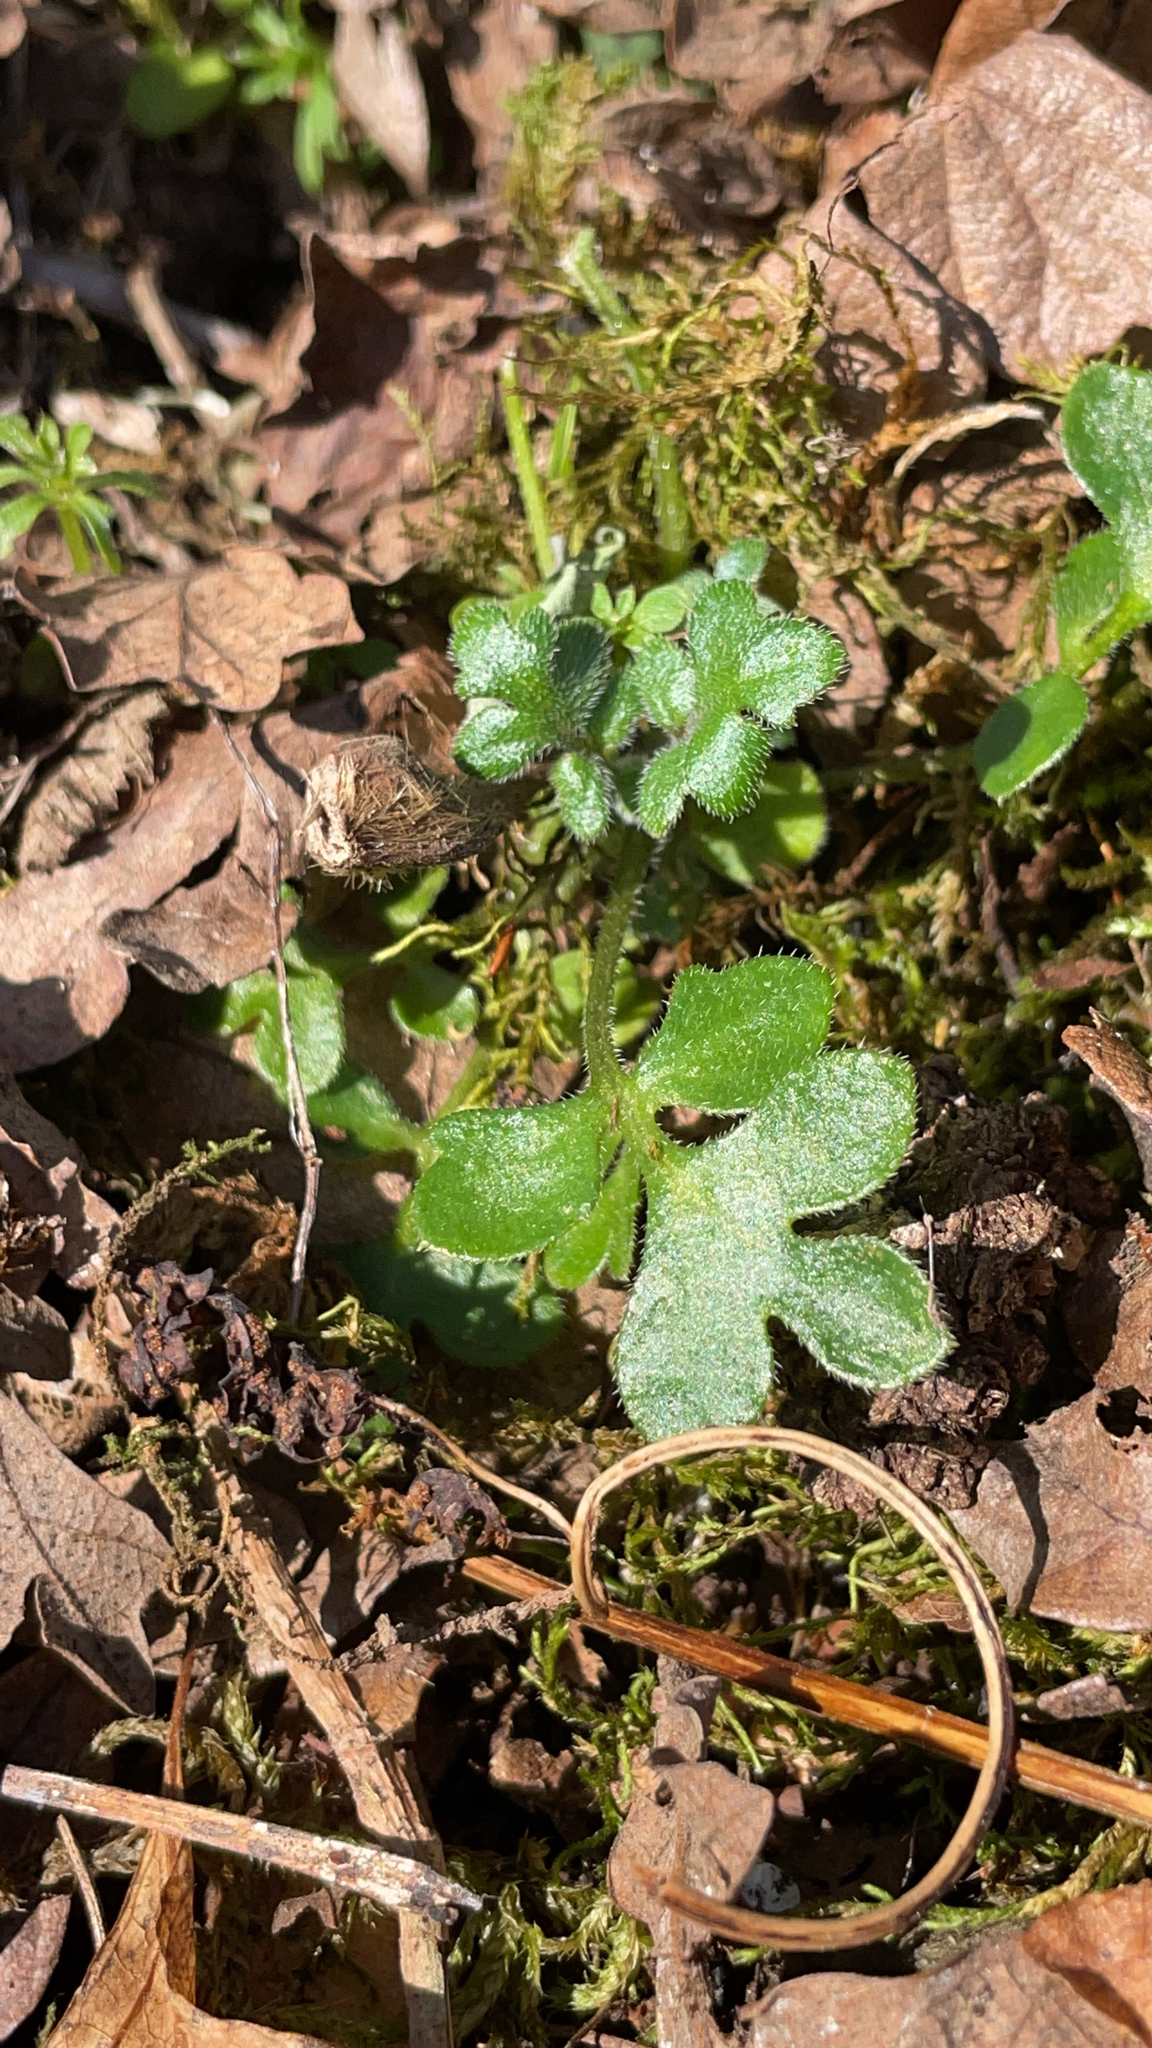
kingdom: Plantae
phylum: Tracheophyta
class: Magnoliopsida
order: Boraginales
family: Hydrophyllaceae
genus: Nemophila
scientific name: Nemophila parviflora
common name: Small-flowered baby-blue-eyes
